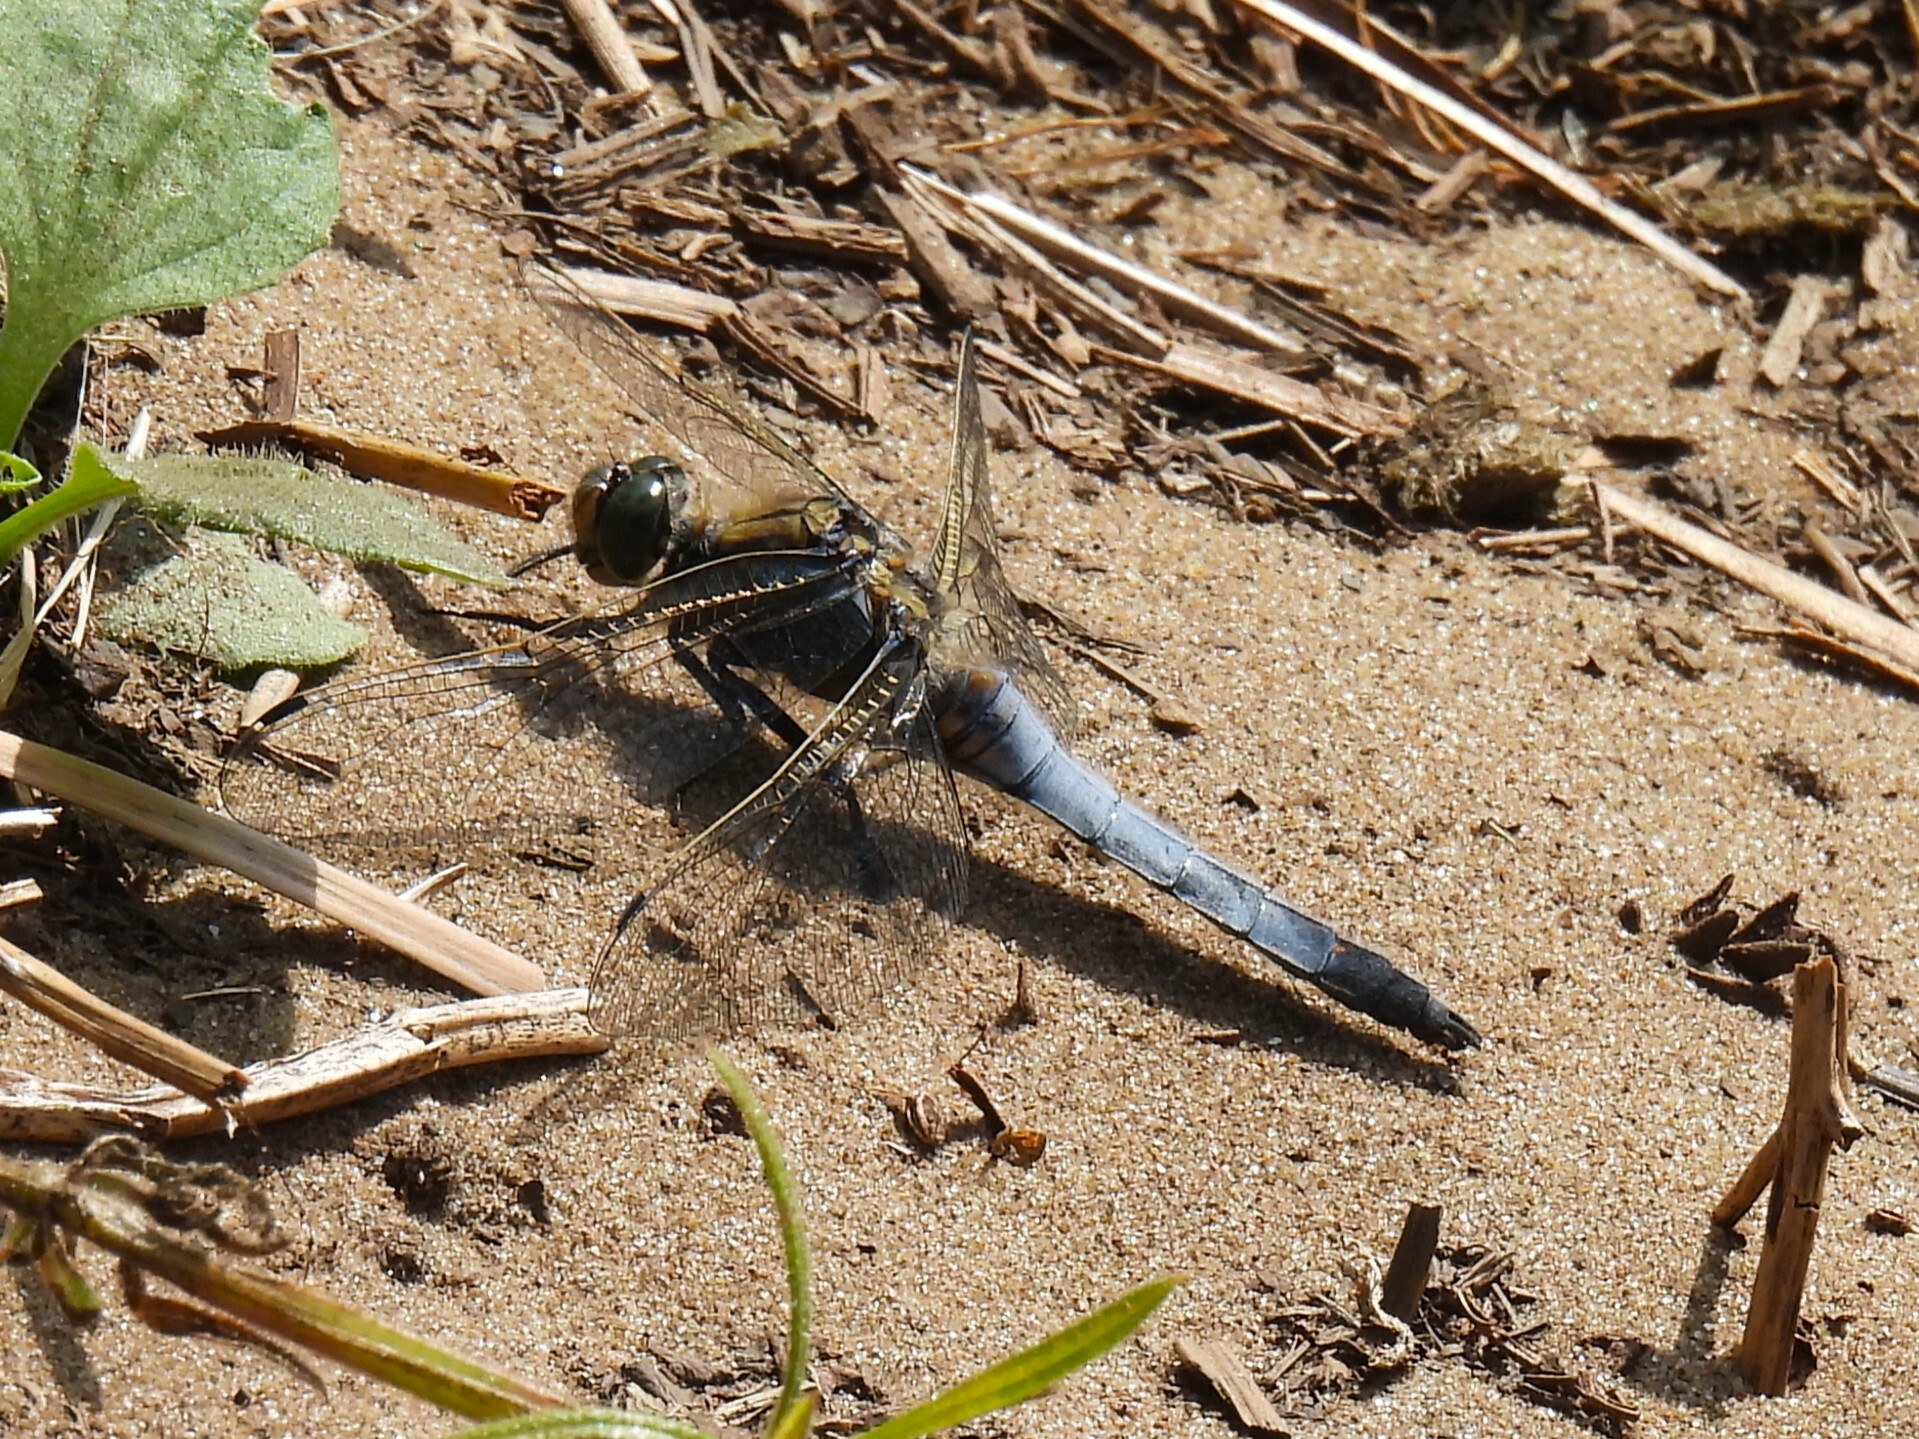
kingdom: Animalia
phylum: Arthropoda
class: Insecta
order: Odonata
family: Libellulidae
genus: Orthetrum
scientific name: Orthetrum cancellatum
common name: Black-tailed skimmer
